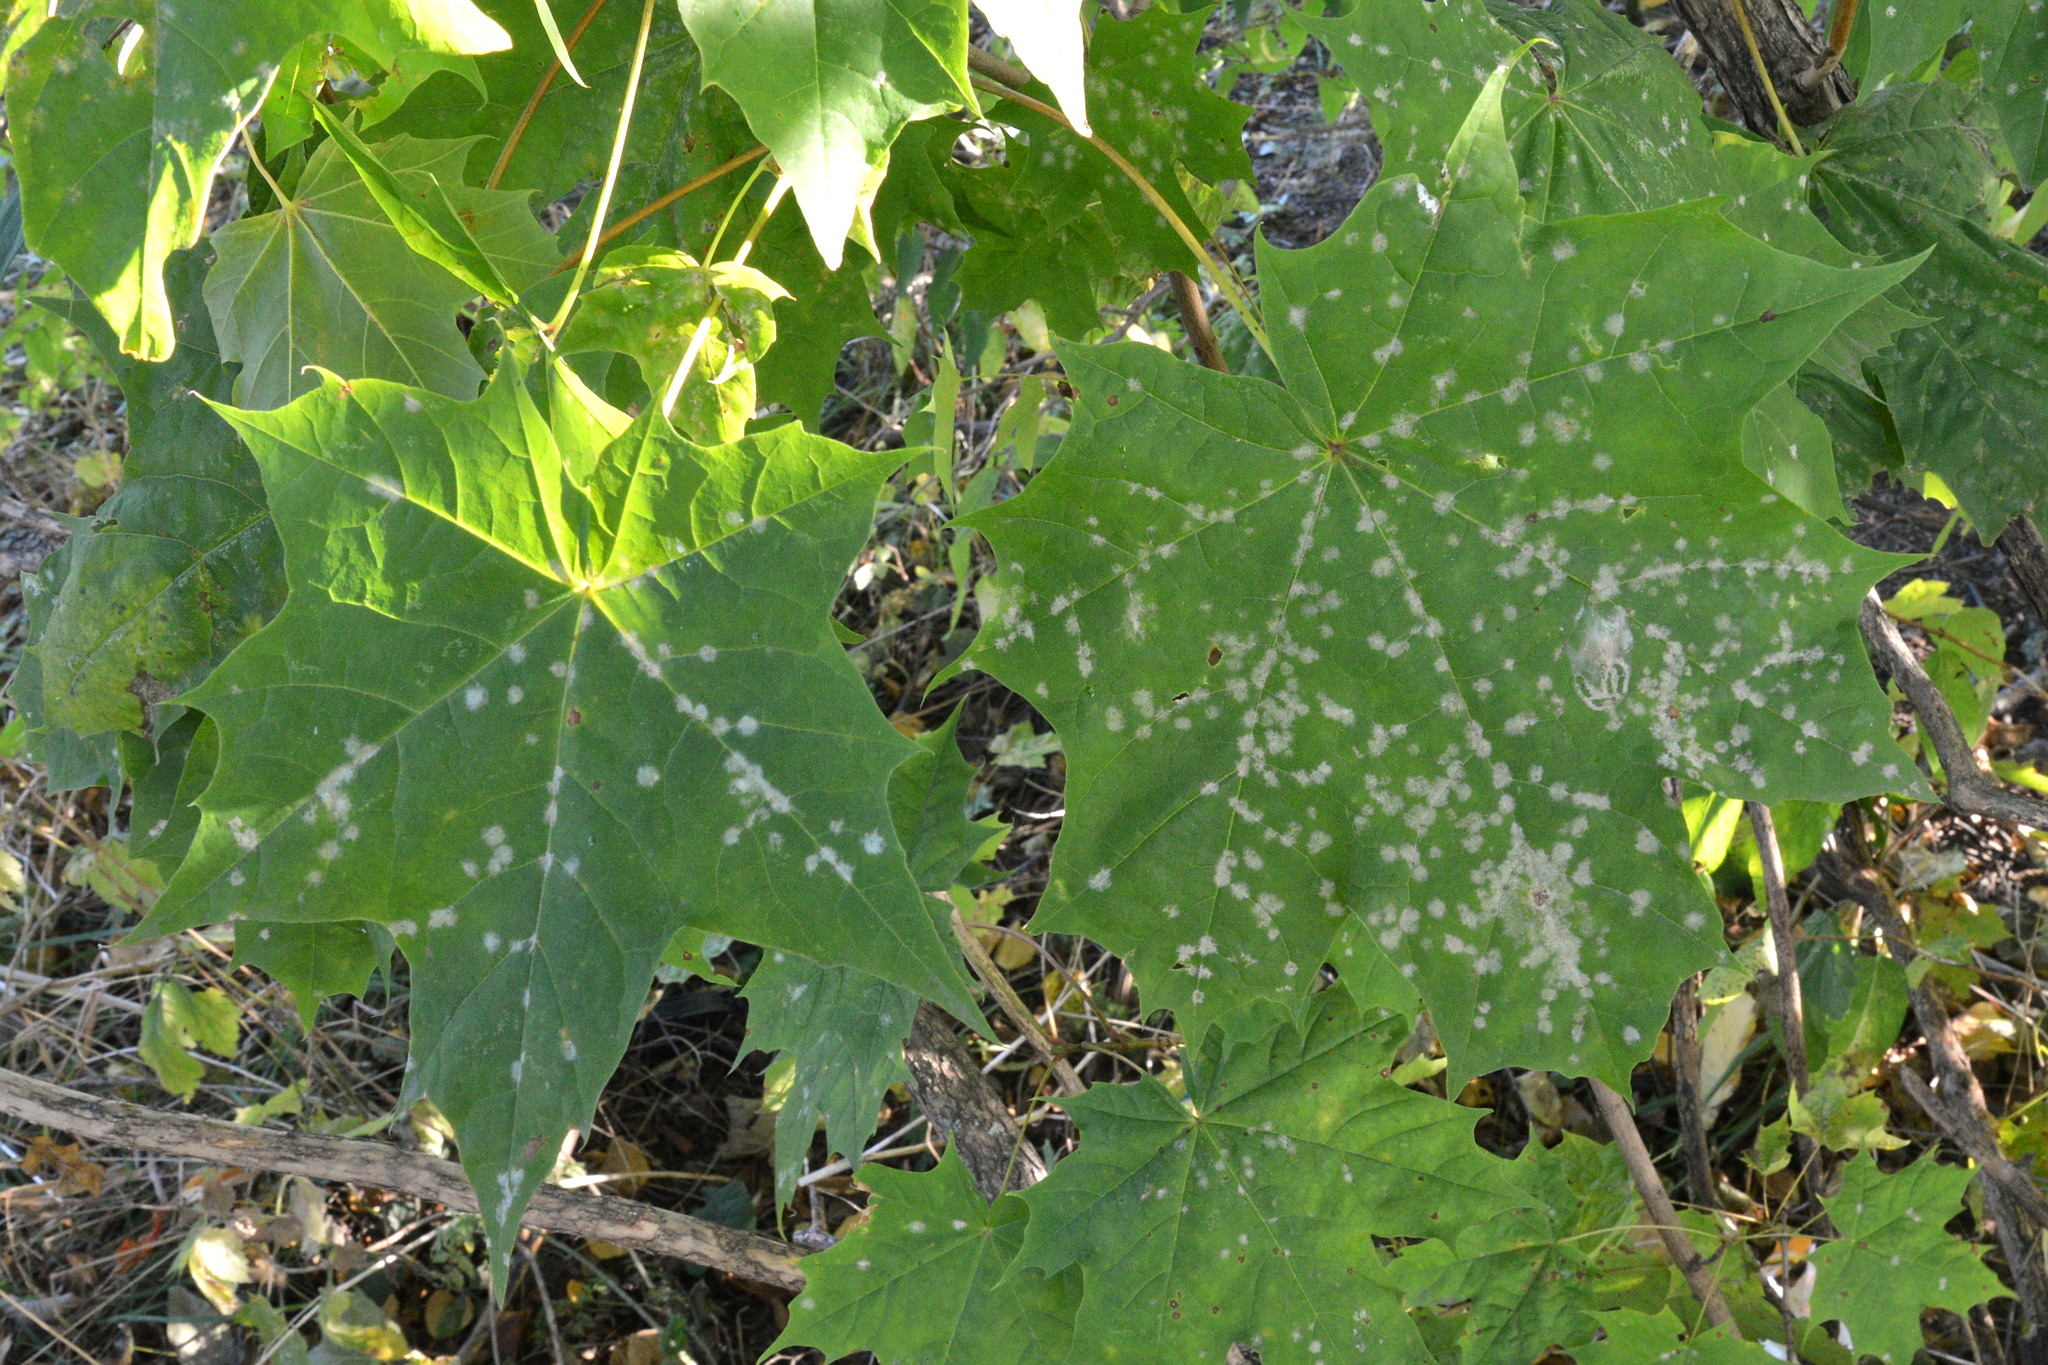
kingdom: Fungi
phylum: Ascomycota
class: Leotiomycetes
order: Helotiales
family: Erysiphaceae
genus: Sawadaea
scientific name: Sawadaea tulasnei
